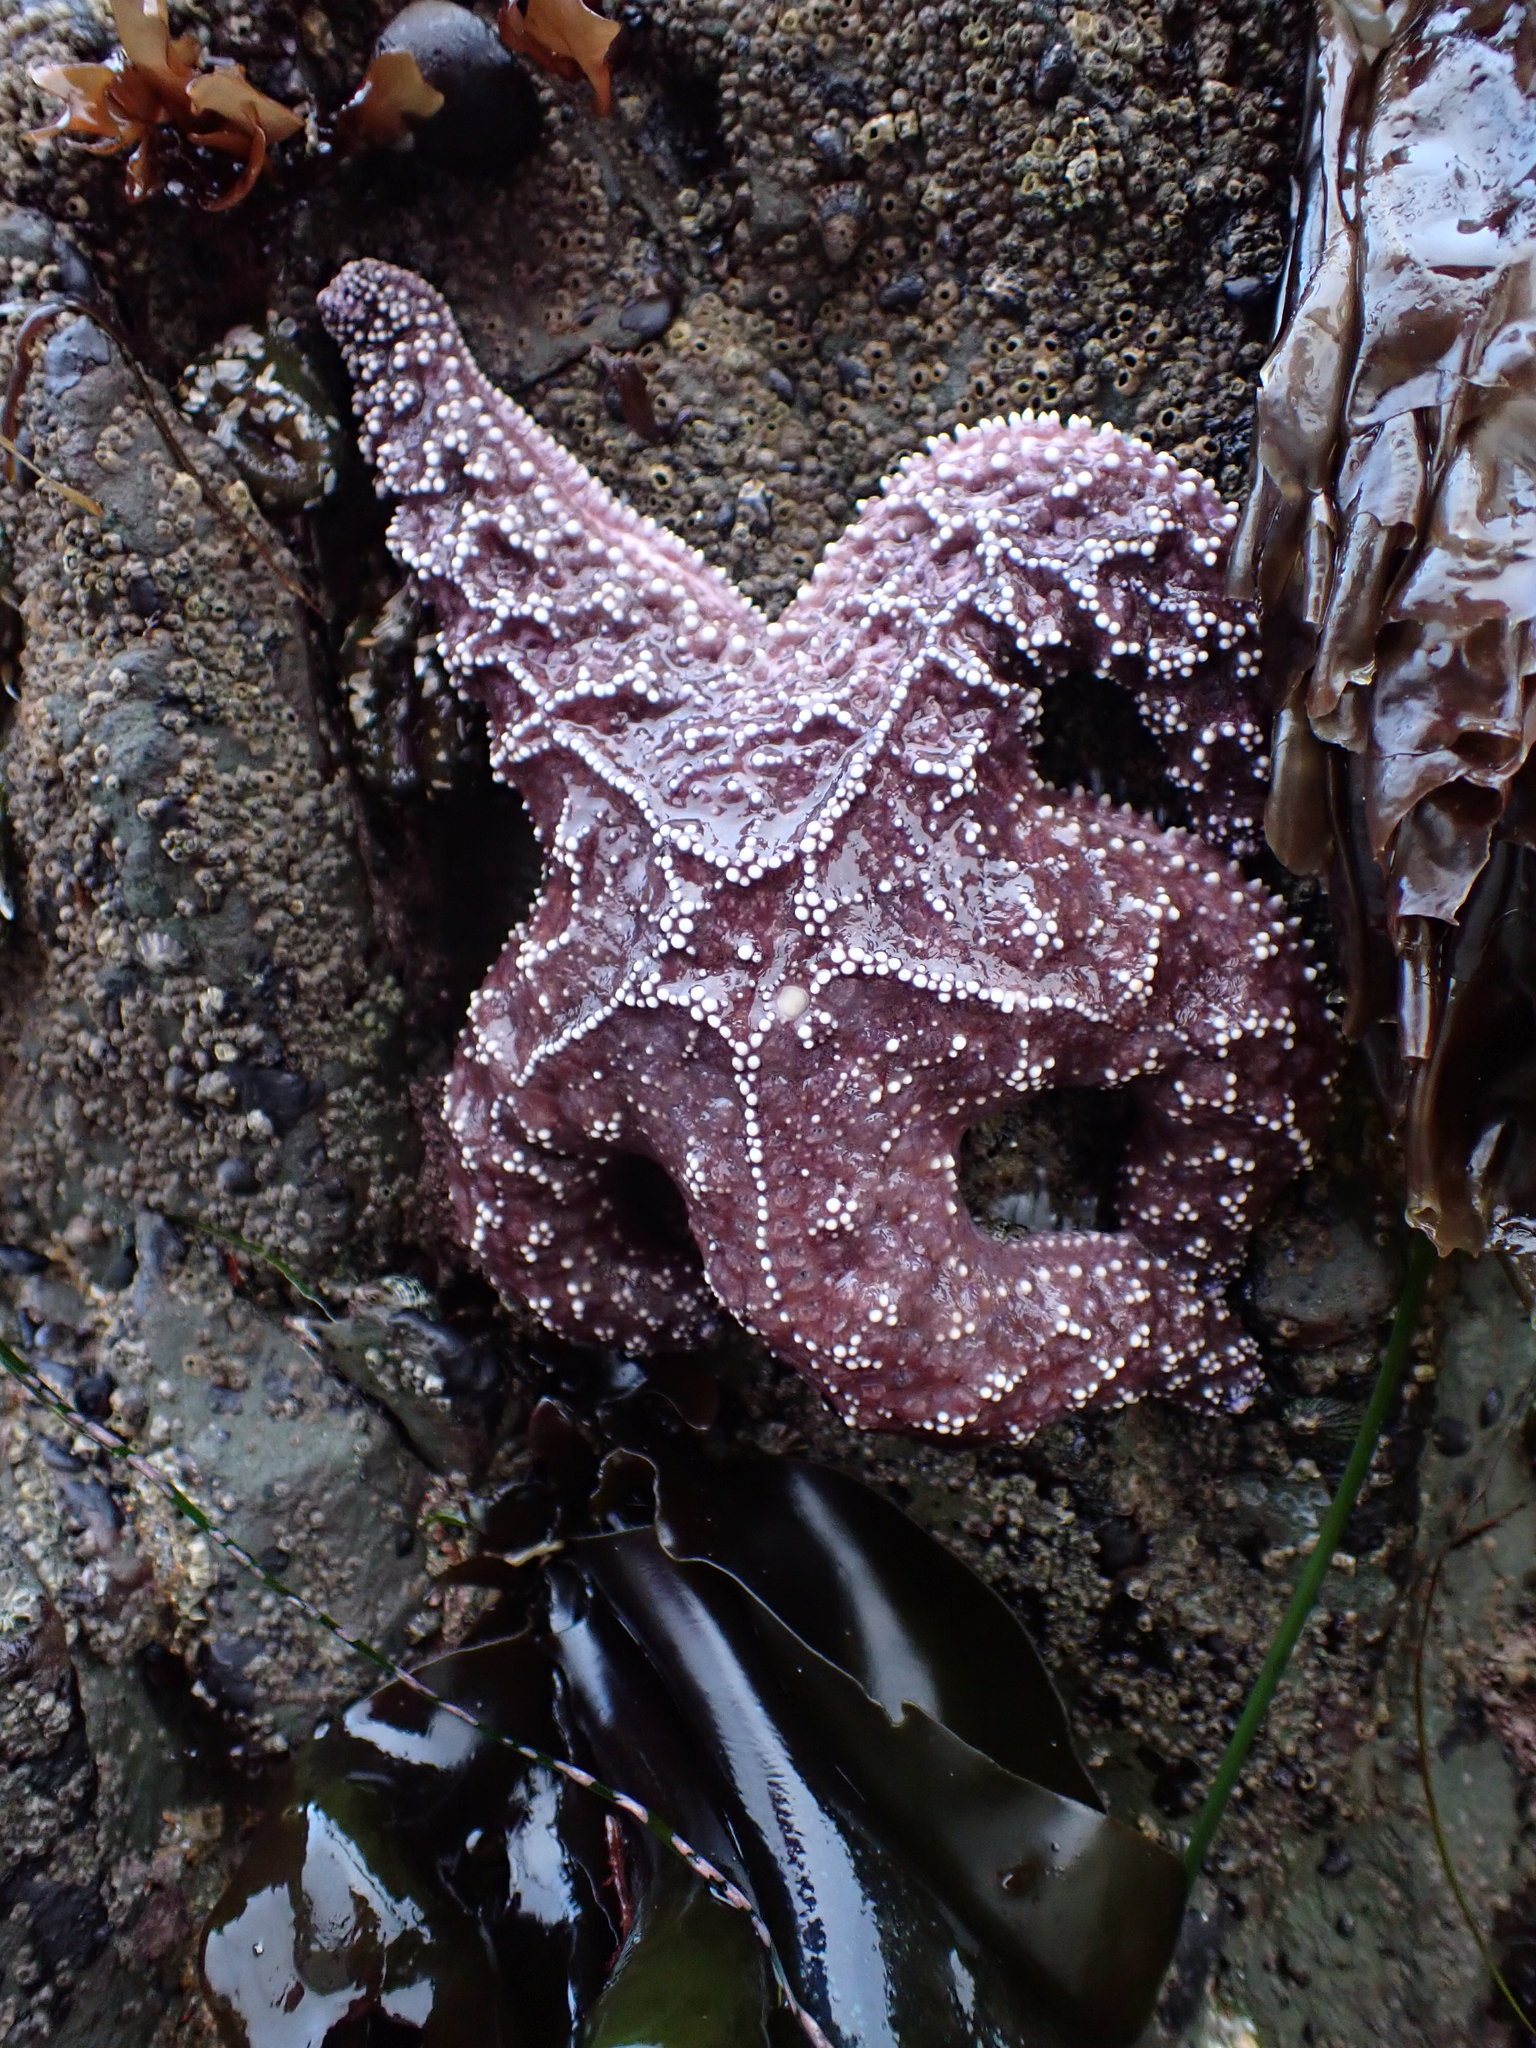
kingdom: Animalia
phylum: Echinodermata
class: Asteroidea
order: Forcipulatida
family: Asteriidae
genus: Pisaster
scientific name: Pisaster ochraceus
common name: Ochre stars
